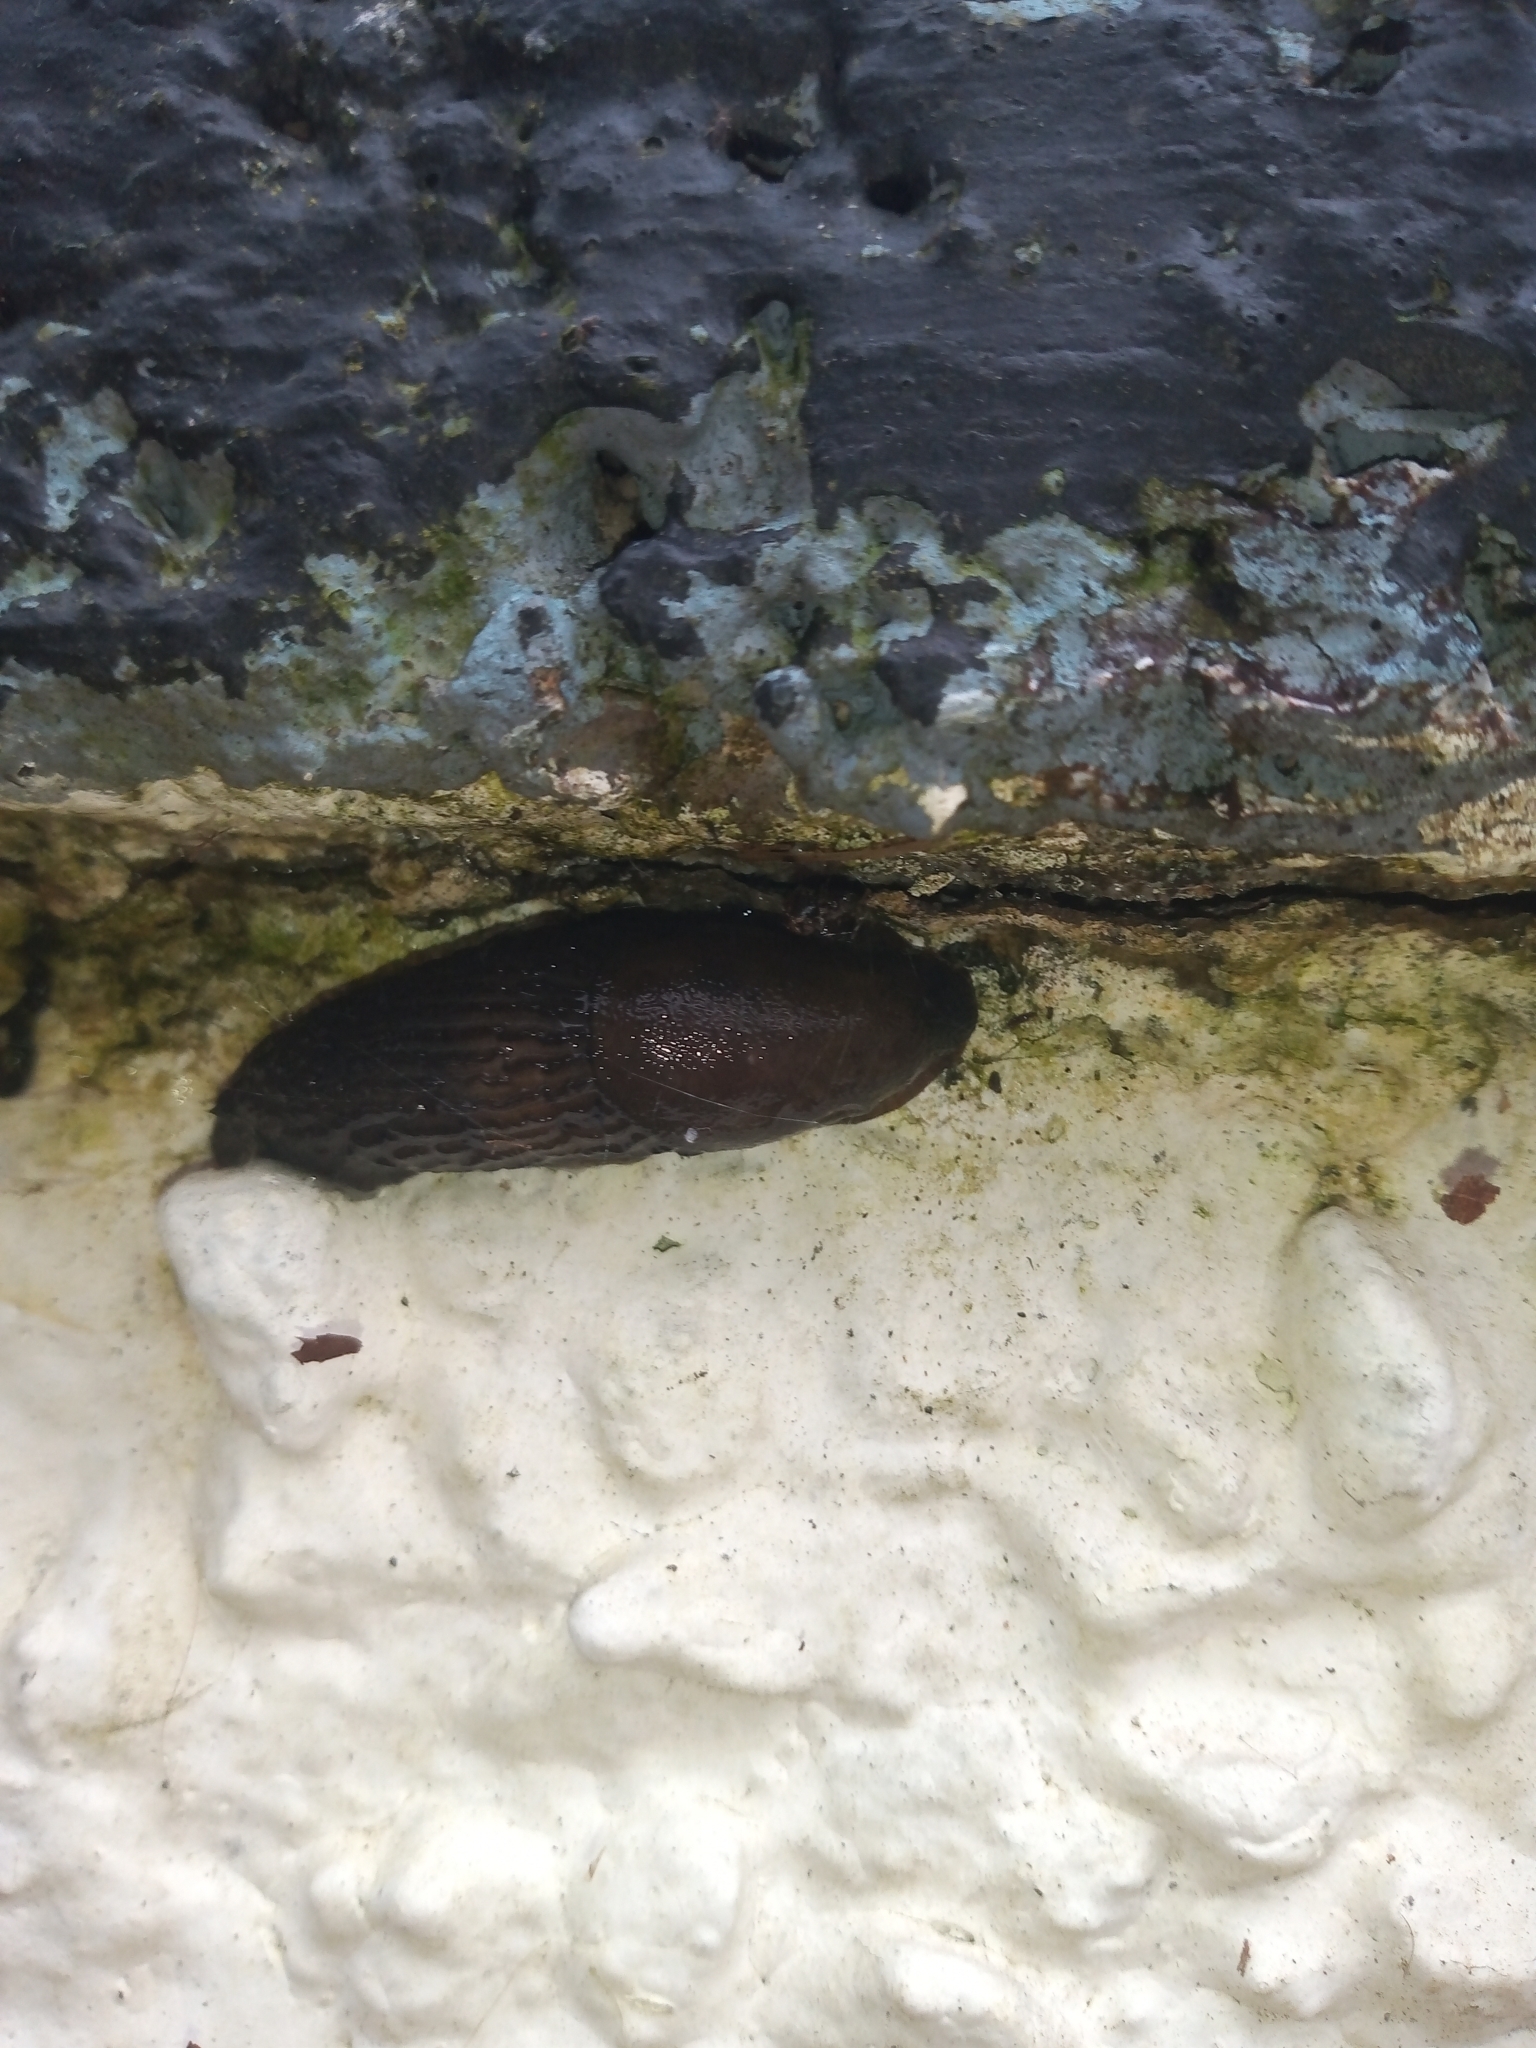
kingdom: Animalia
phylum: Mollusca
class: Gastropoda
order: Stylommatophora
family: Arionidae
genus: Arion
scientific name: Arion
